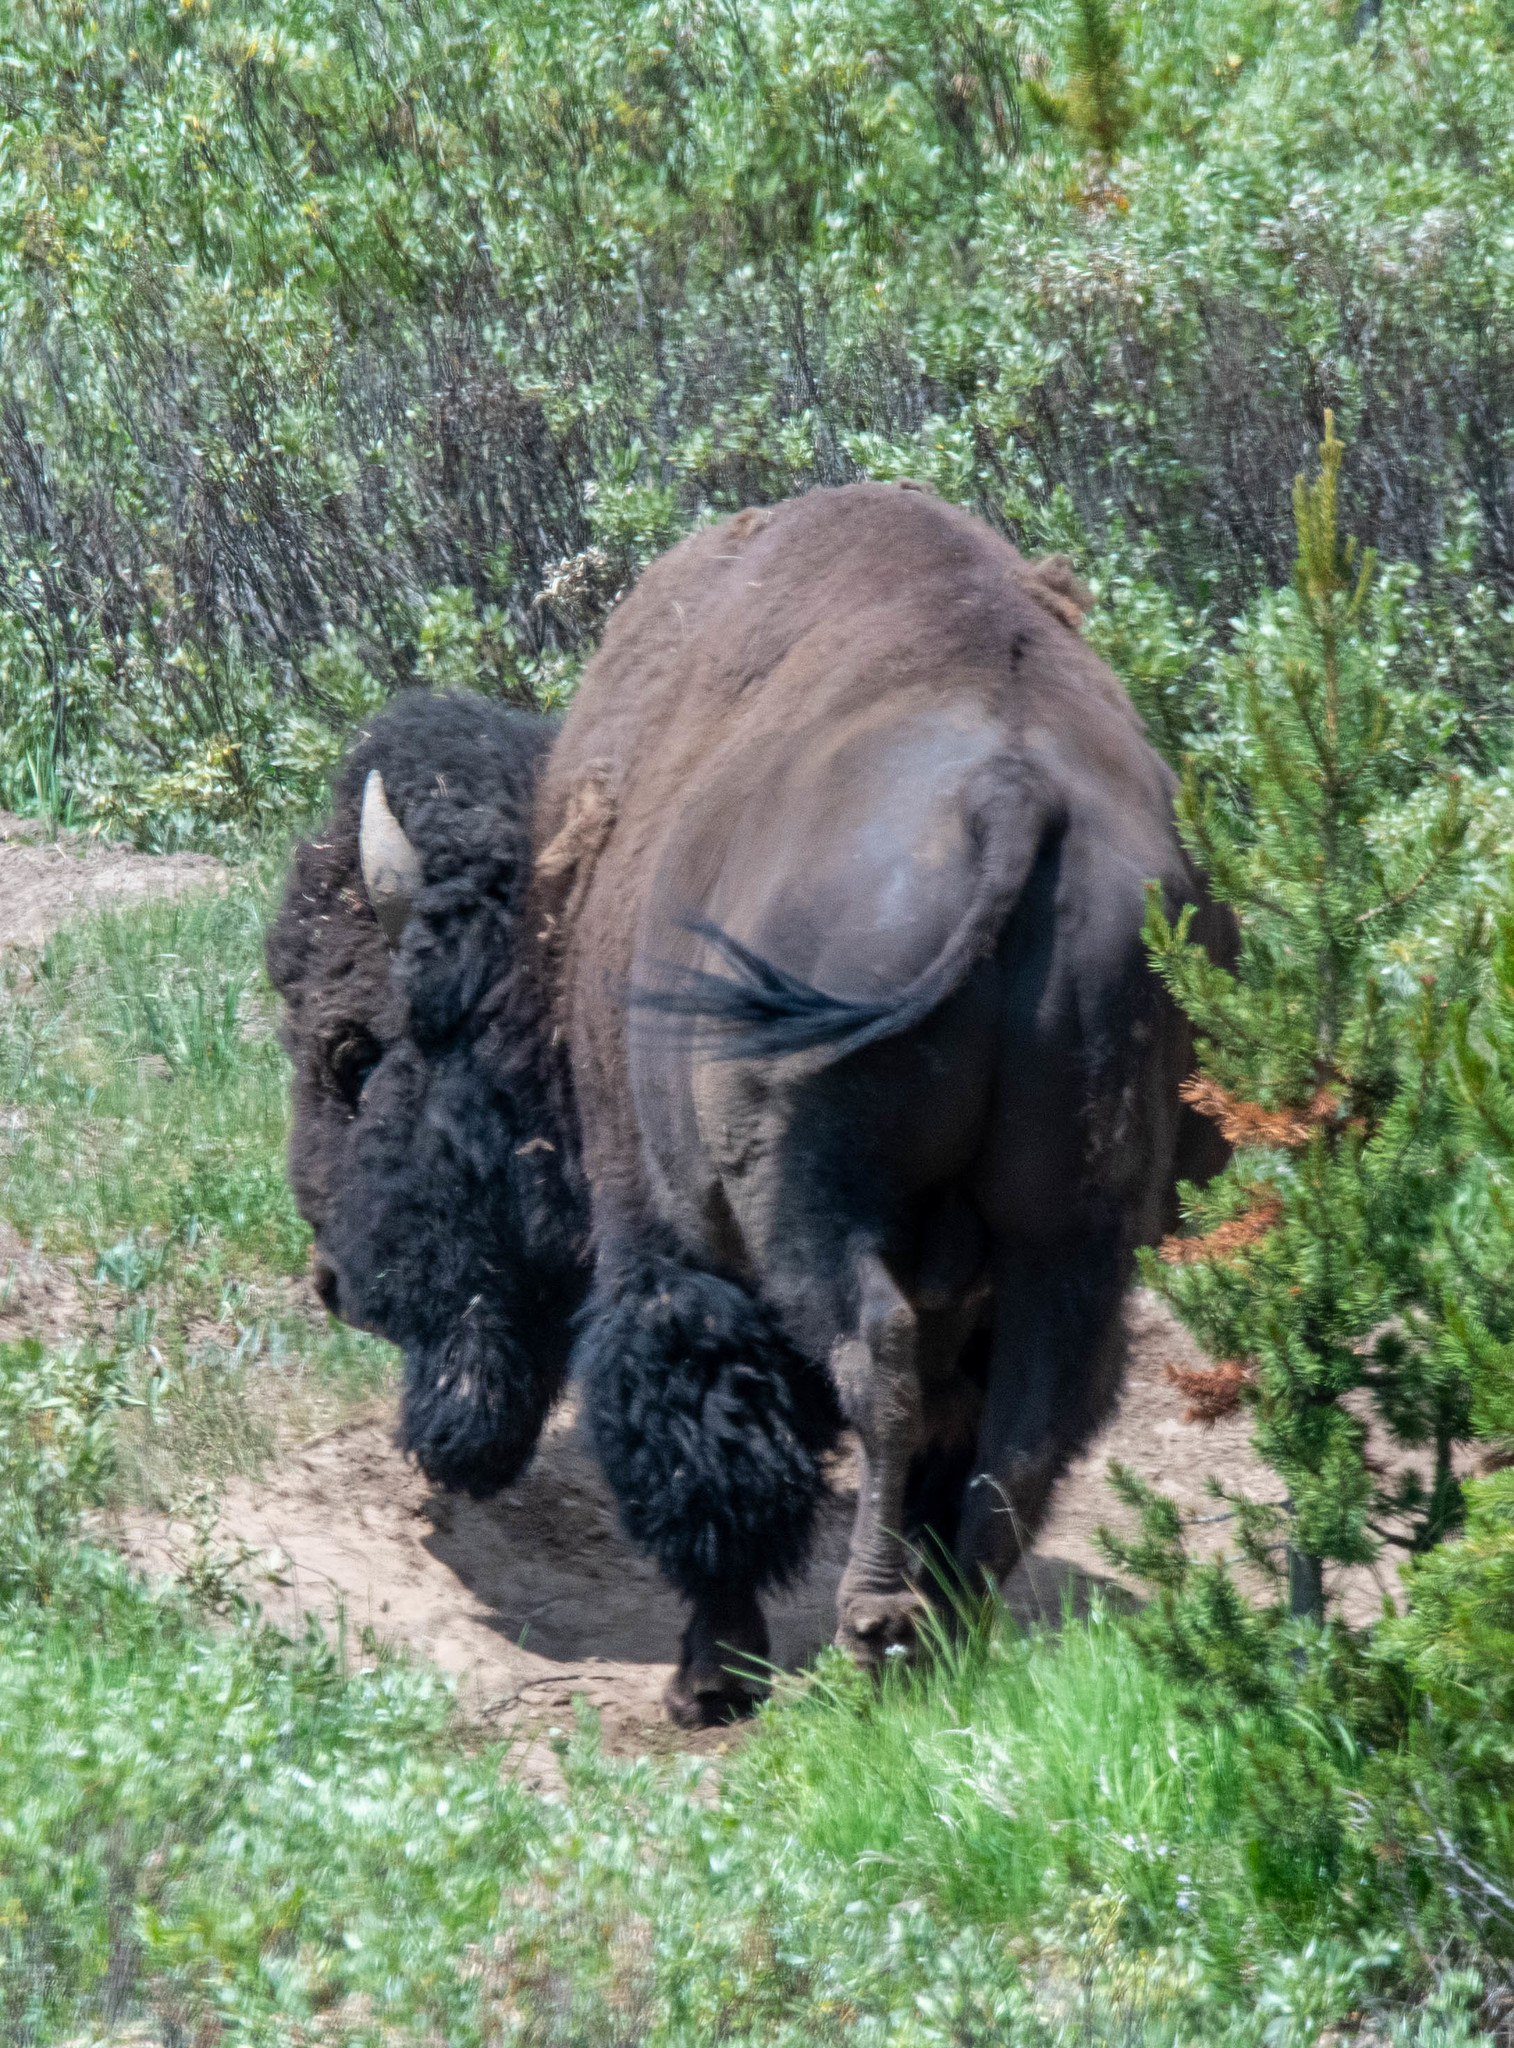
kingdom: Animalia
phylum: Chordata
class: Mammalia
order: Artiodactyla
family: Bovidae
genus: Bison
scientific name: Bison bison
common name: American bison
